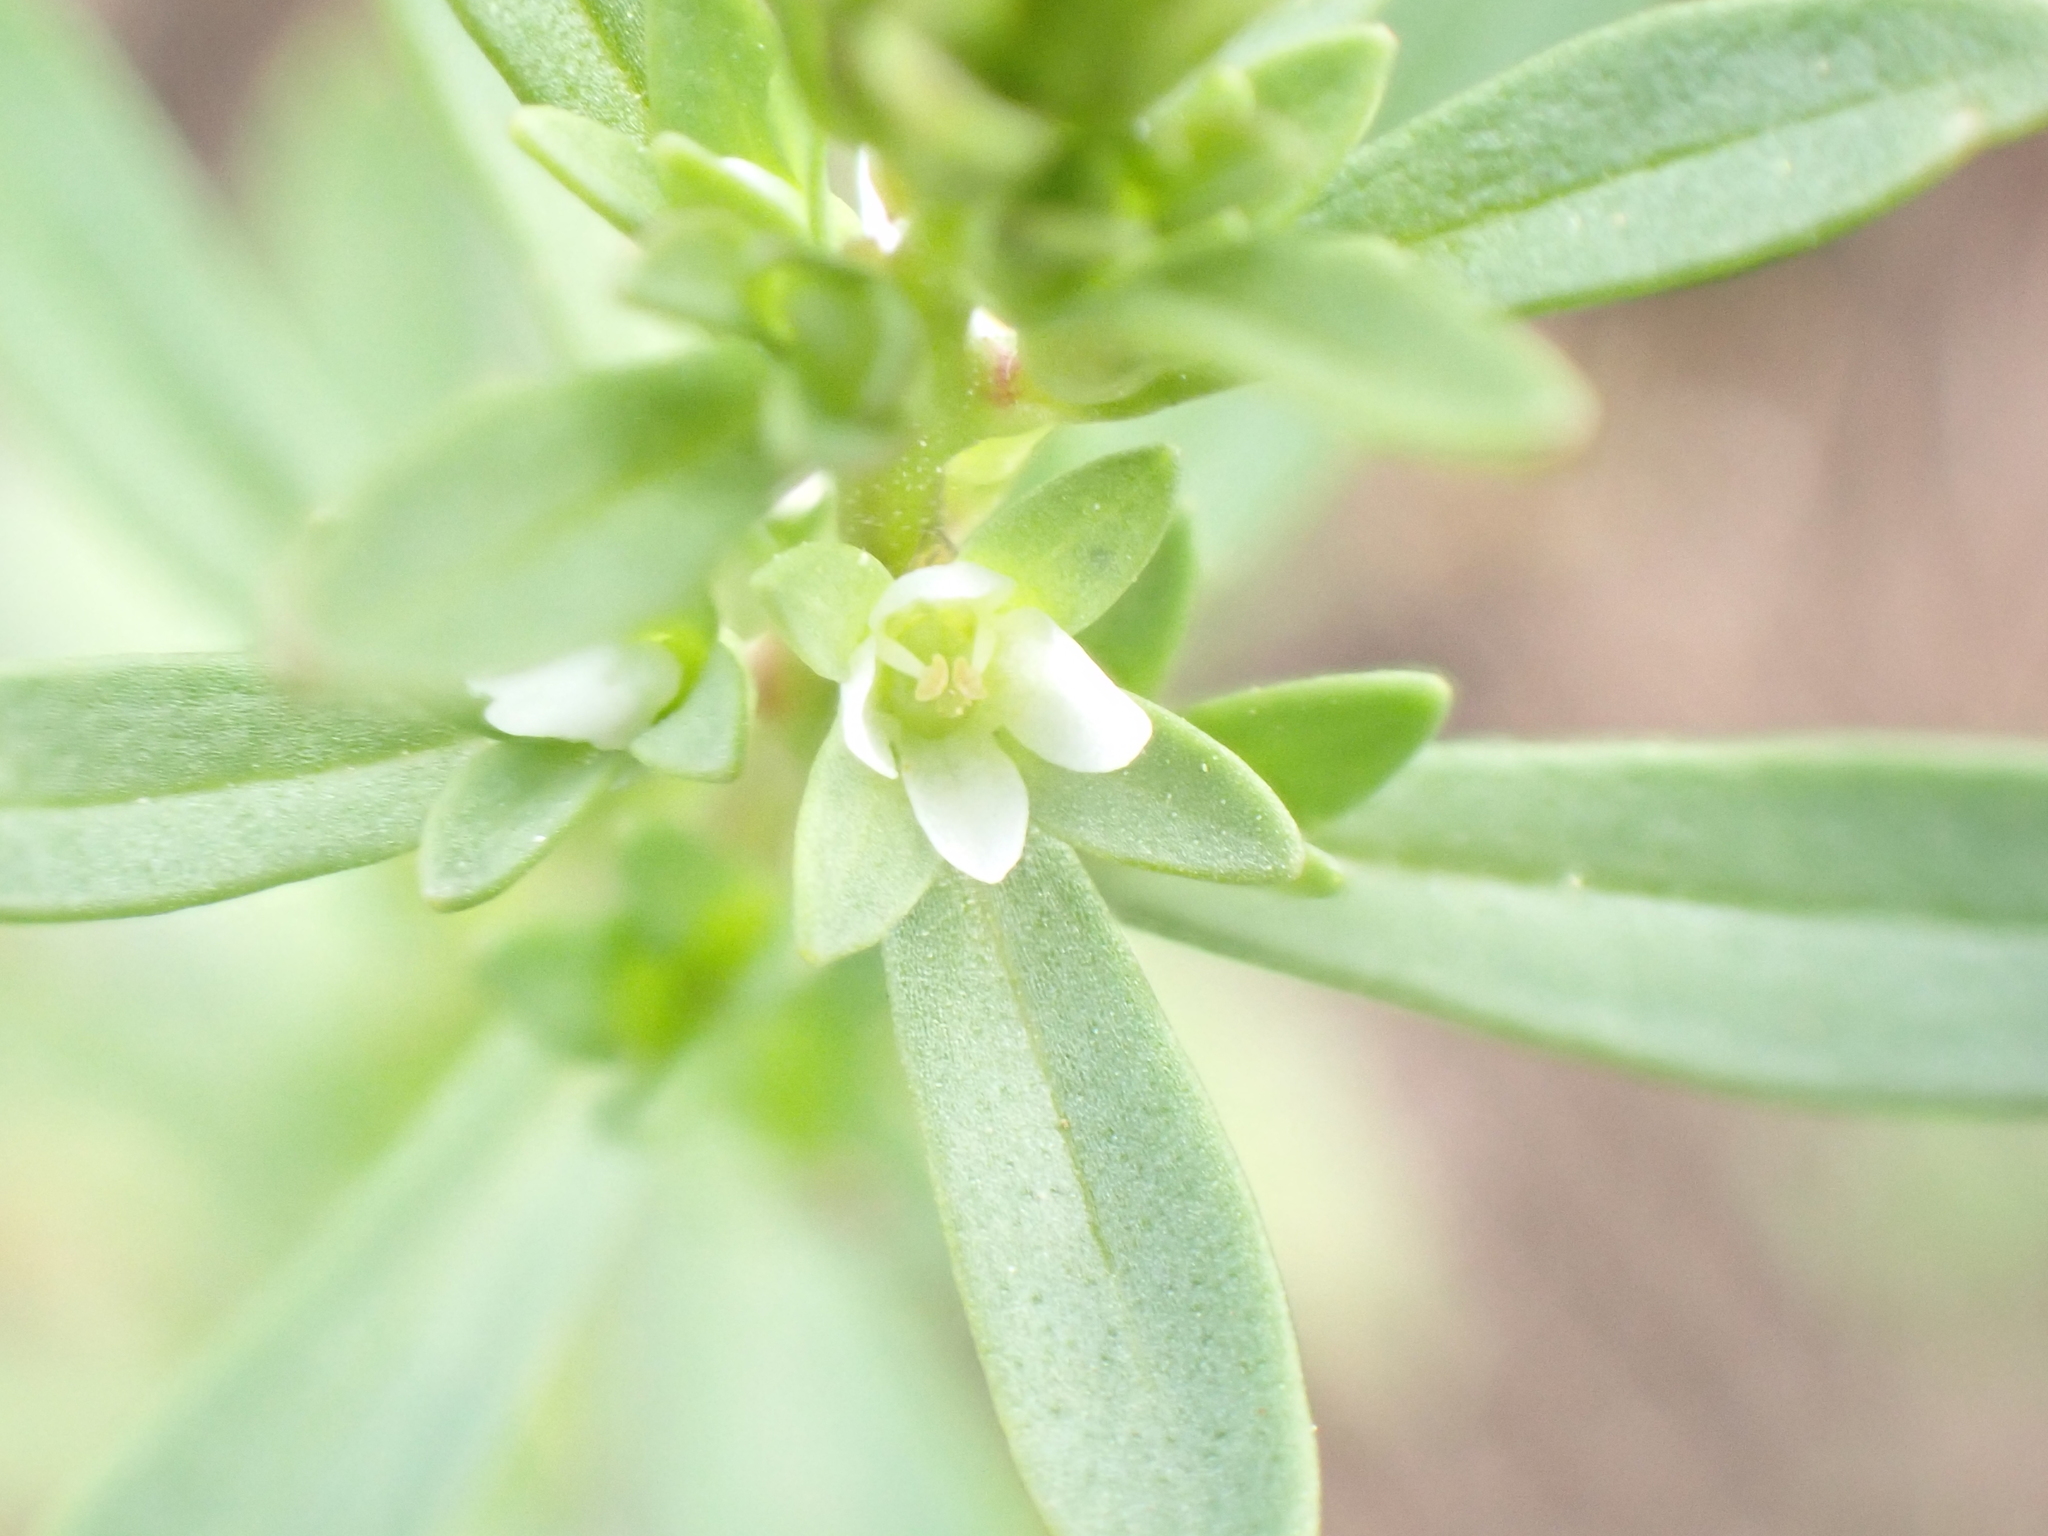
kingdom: Plantae
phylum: Tracheophyta
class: Magnoliopsida
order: Lamiales
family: Plantaginaceae
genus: Veronica
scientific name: Veronica peregrina
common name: Neckweed
